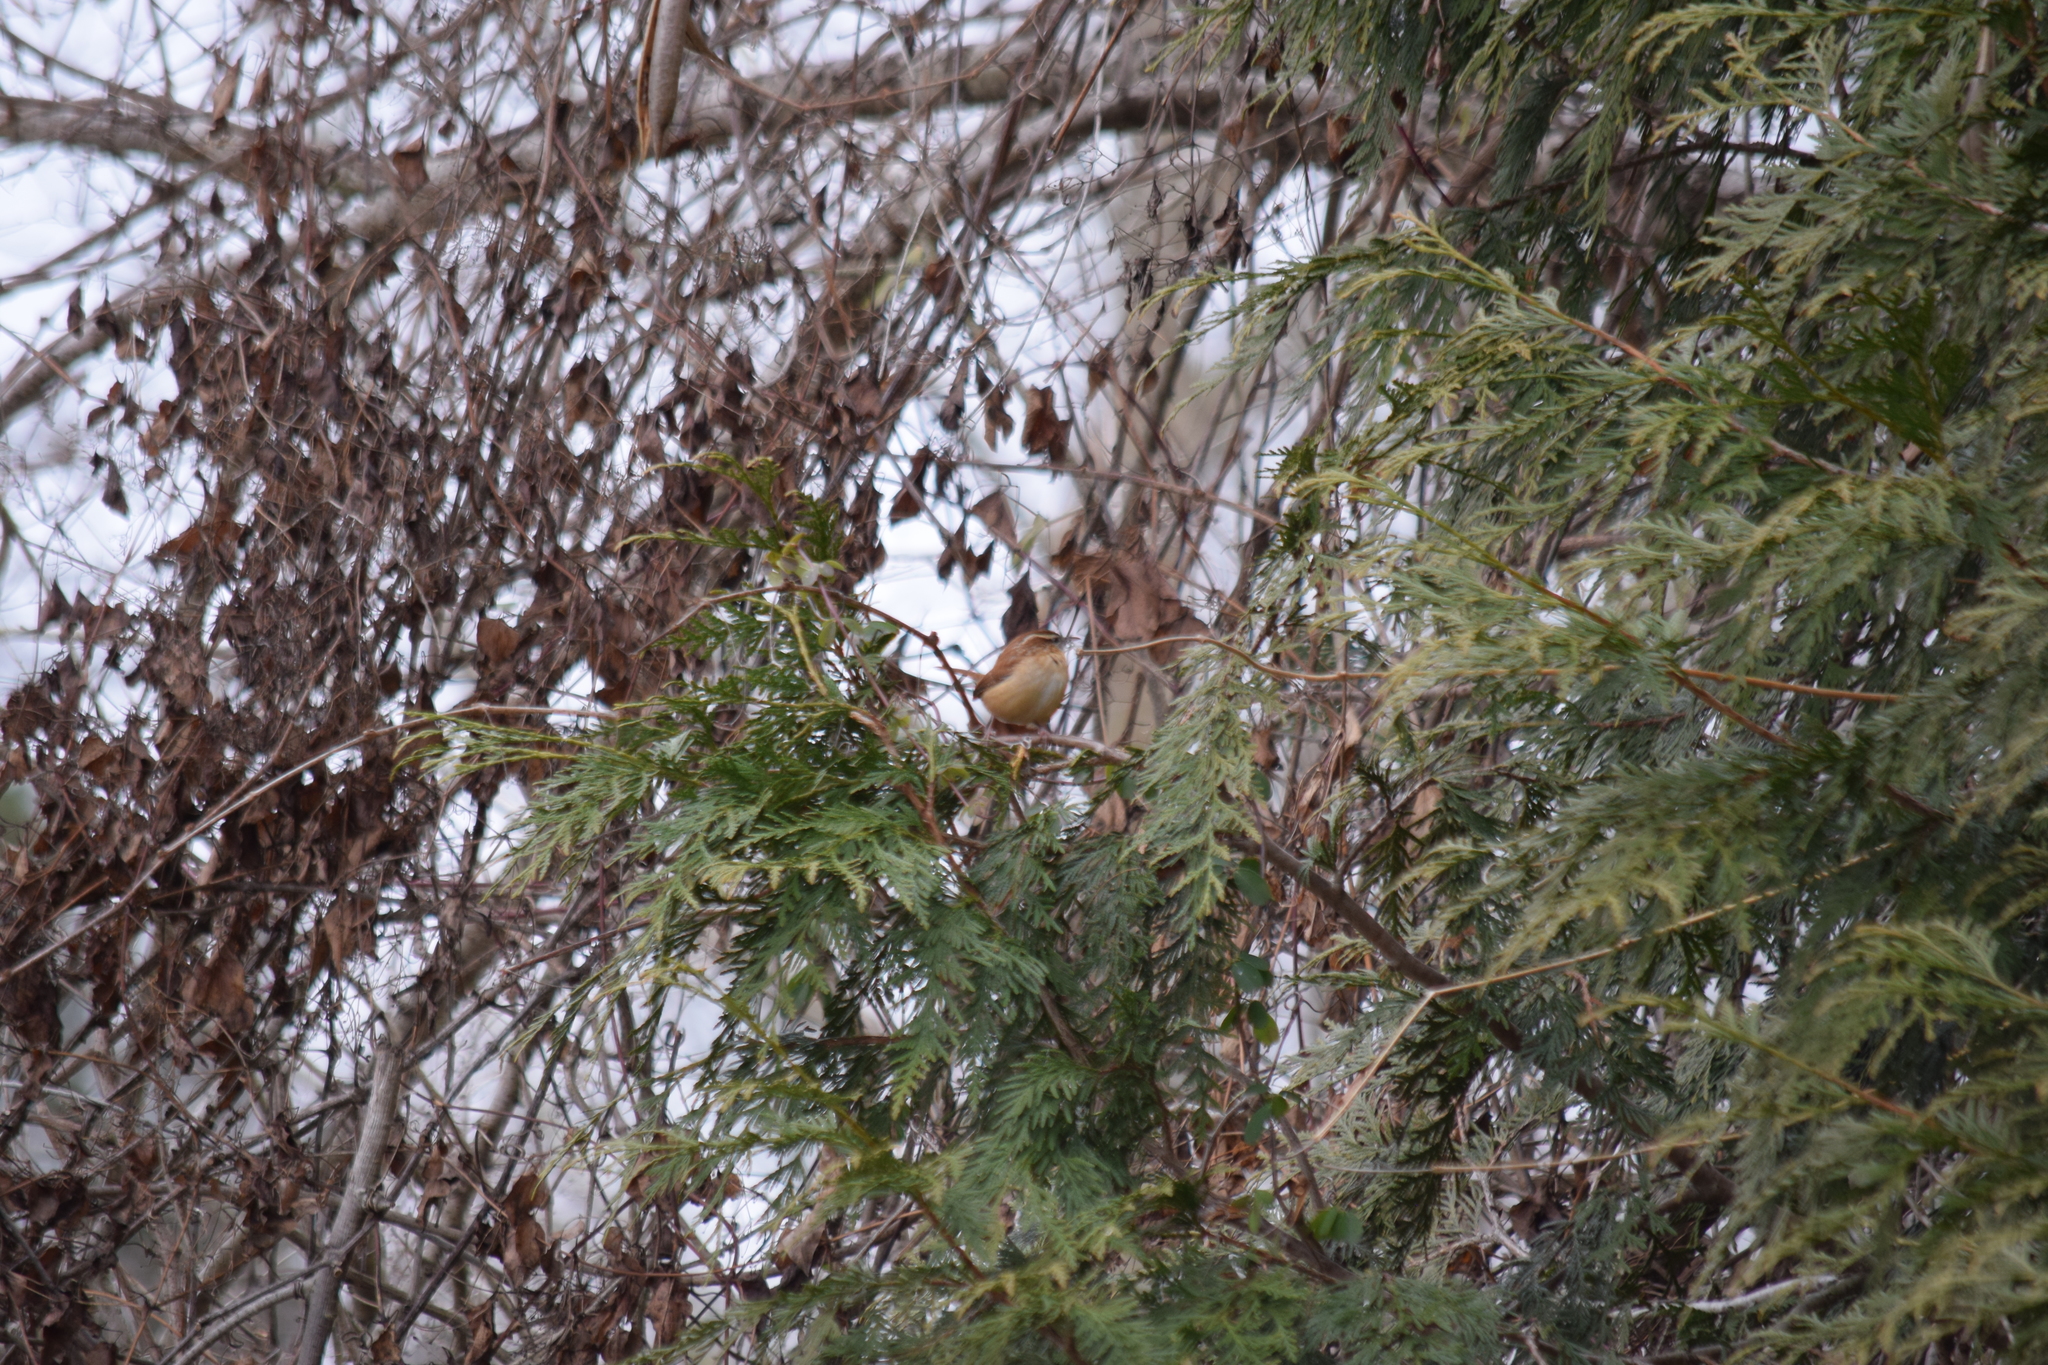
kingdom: Animalia
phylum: Chordata
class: Aves
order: Passeriformes
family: Troglodytidae
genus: Thryothorus
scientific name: Thryothorus ludovicianus
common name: Carolina wren
